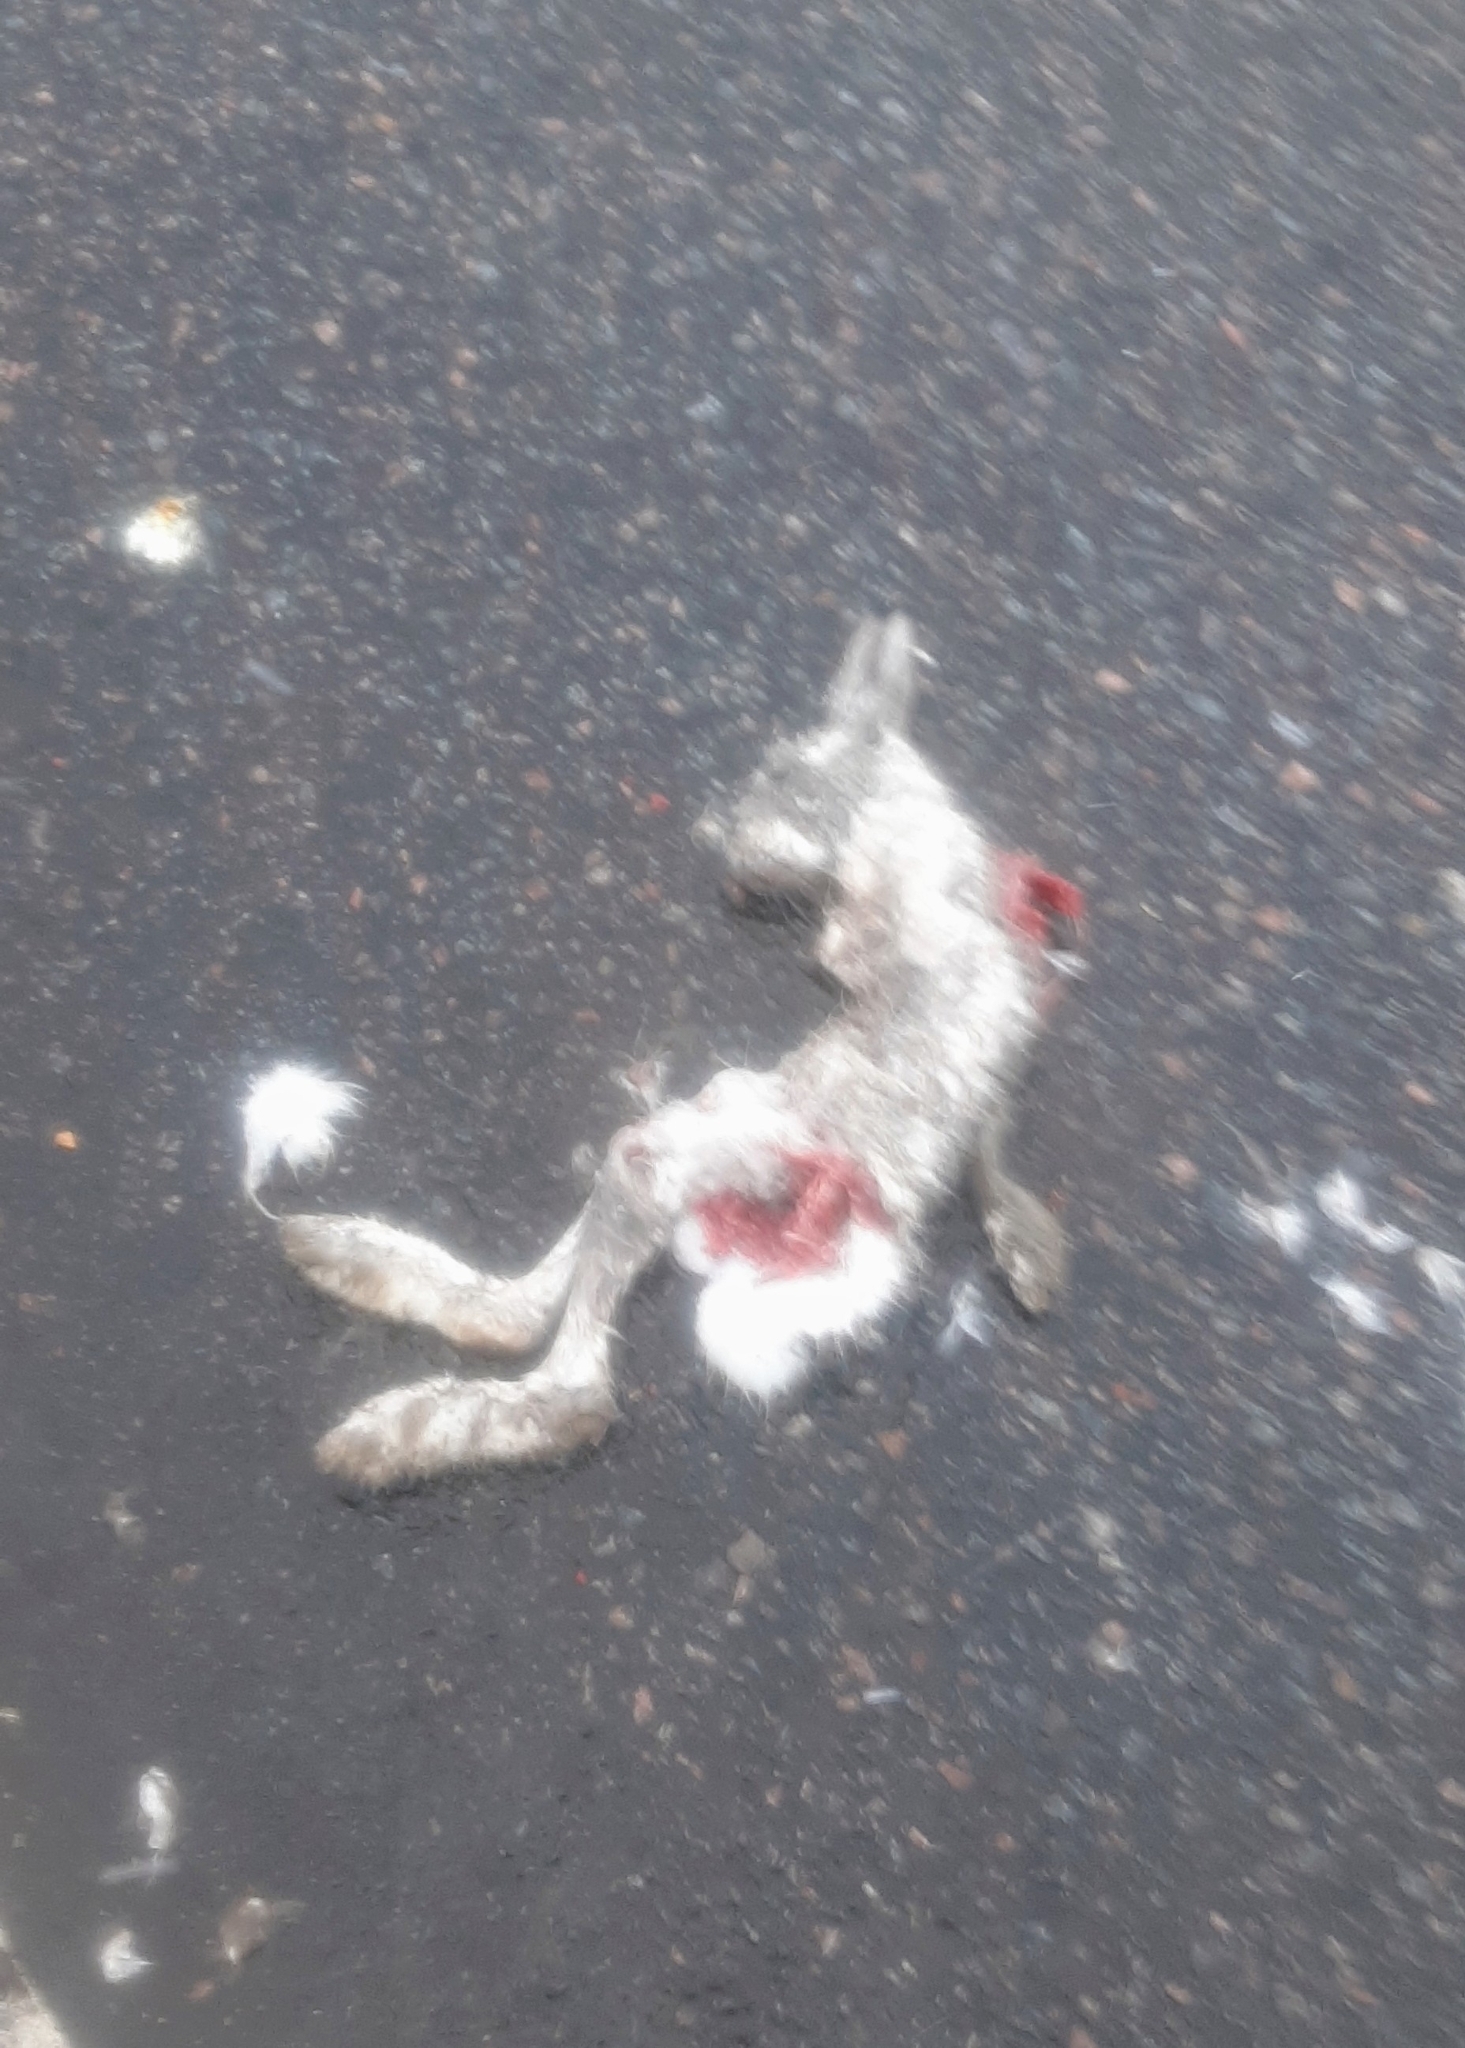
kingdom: Animalia
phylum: Chordata
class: Mammalia
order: Lagomorpha
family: Leporidae
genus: Lepus
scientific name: Lepus timidus
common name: Mountain hare
